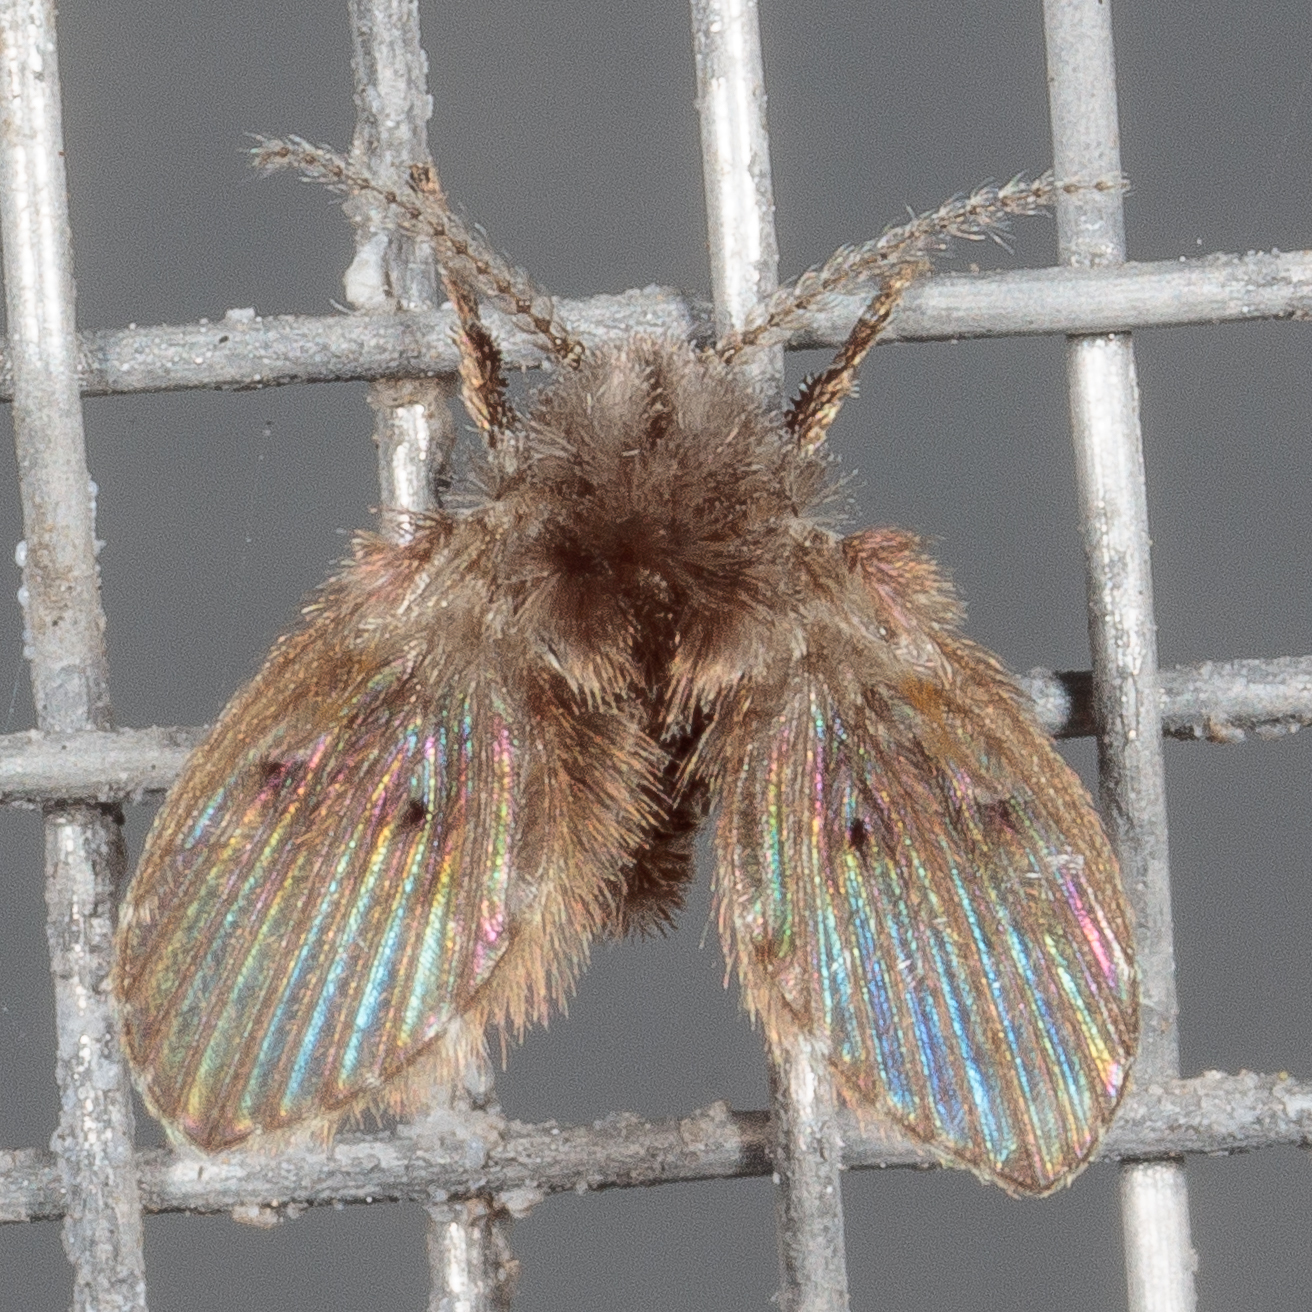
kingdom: Animalia
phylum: Arthropoda
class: Insecta
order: Diptera
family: Psychodidae
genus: Clogmia
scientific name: Clogmia albipunctatus
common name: White-spotted moth fly
